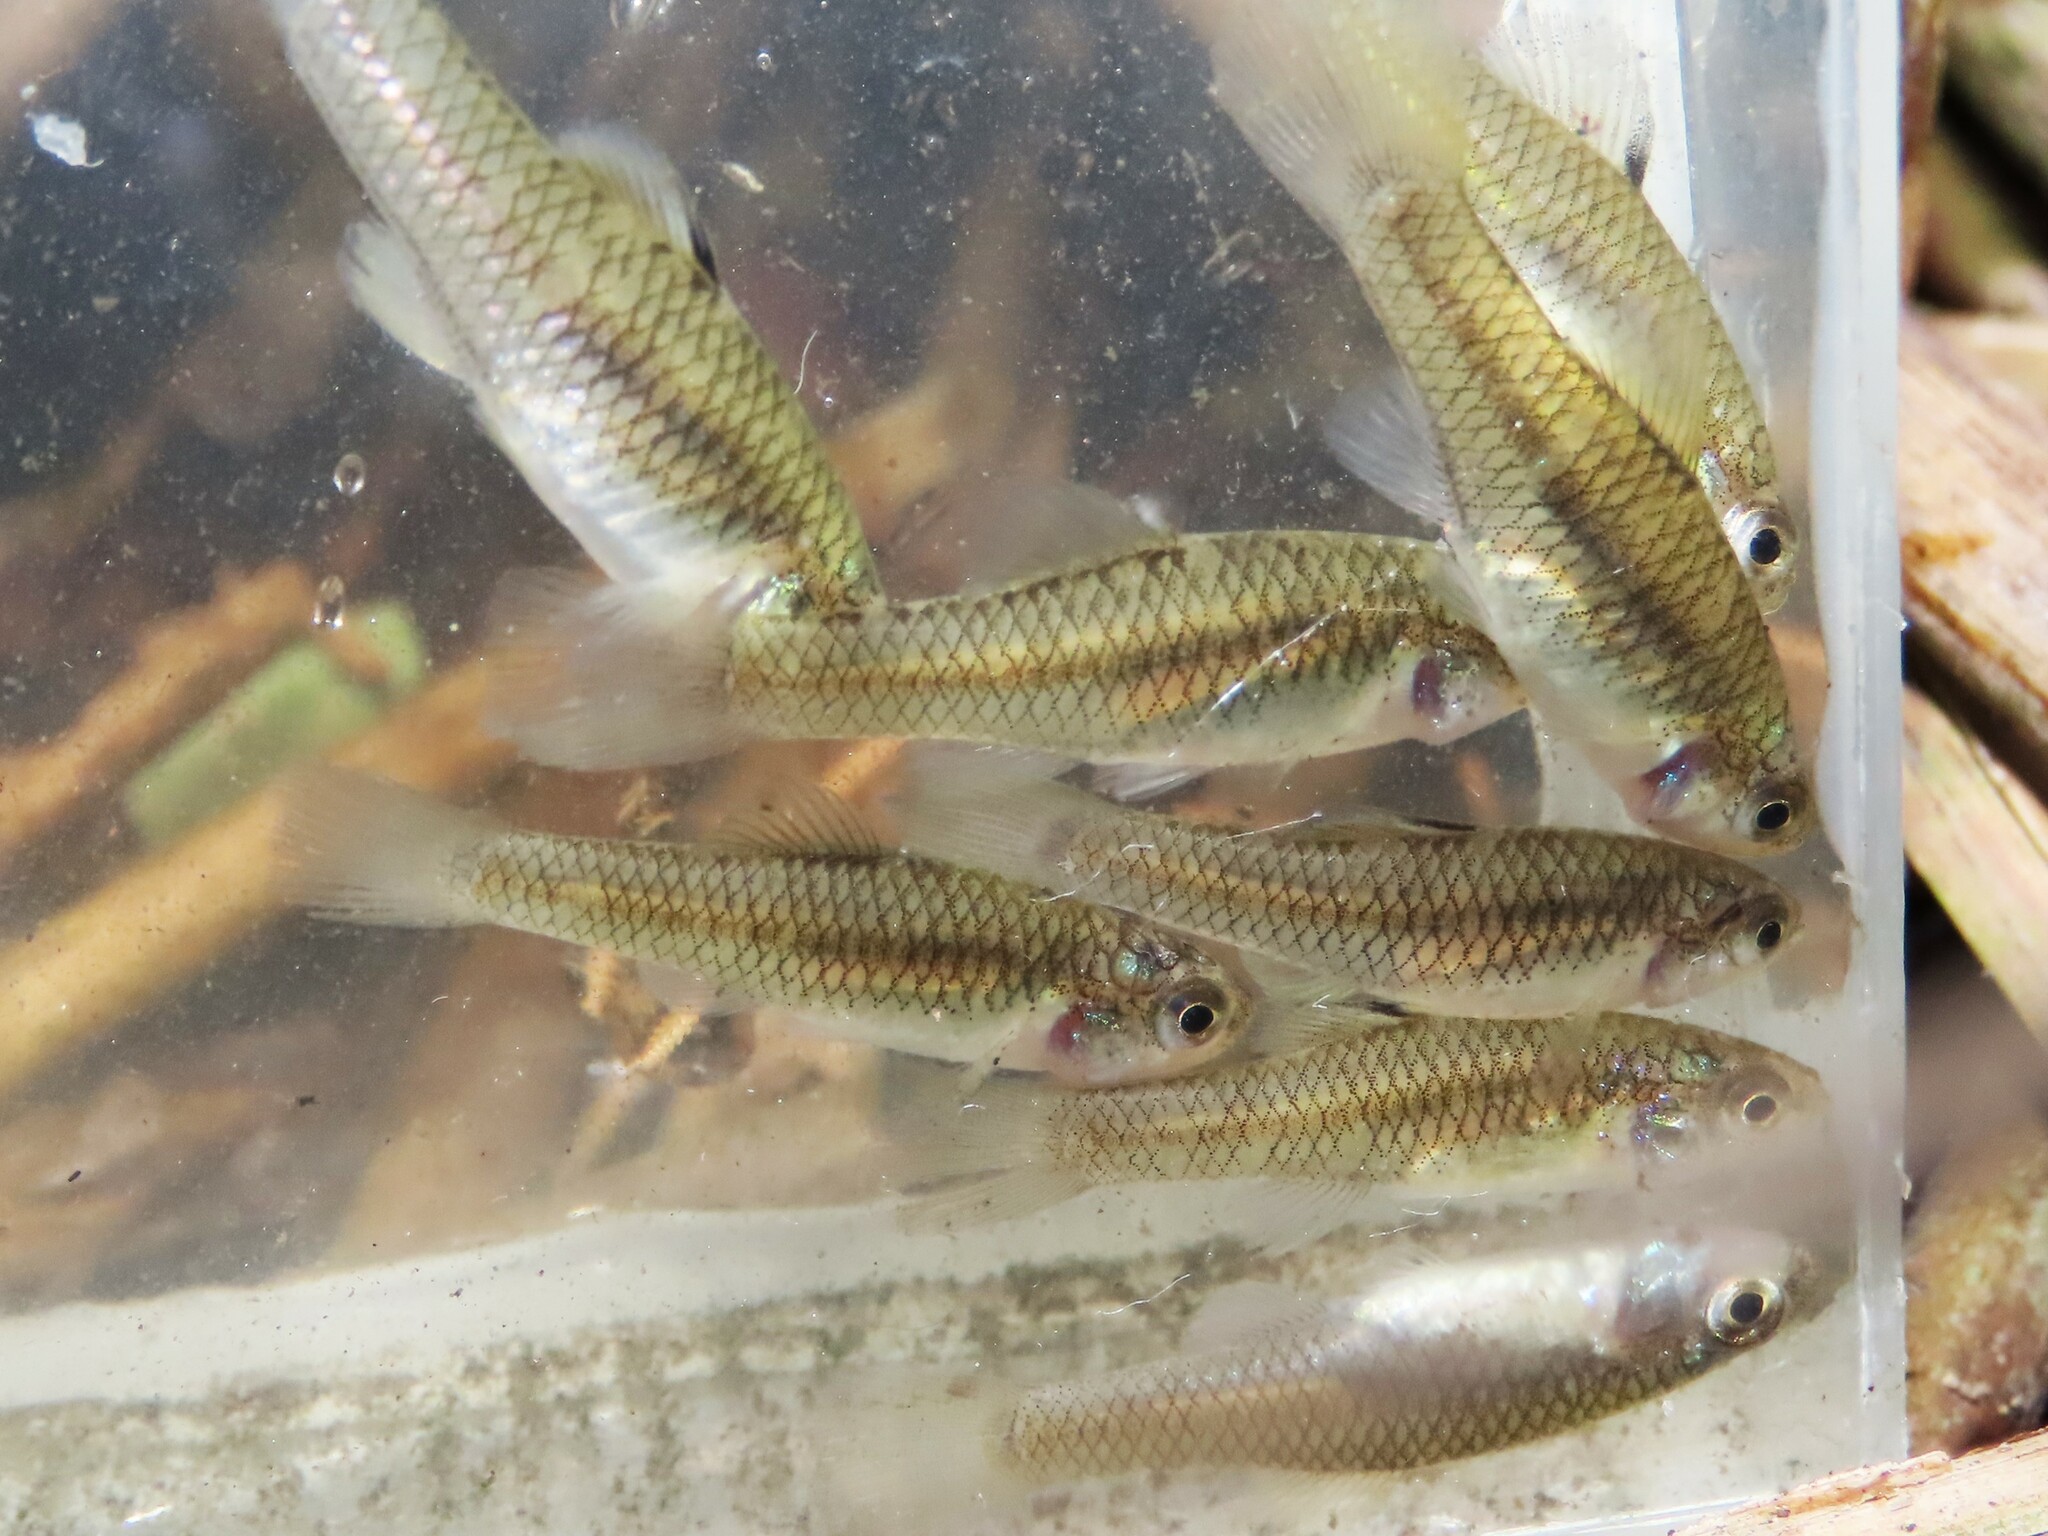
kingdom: Animalia
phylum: Chordata
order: Cyprinodontiformes
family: Fundulidae
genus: Lucania
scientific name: Lucania parva
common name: Rainwater killifish
